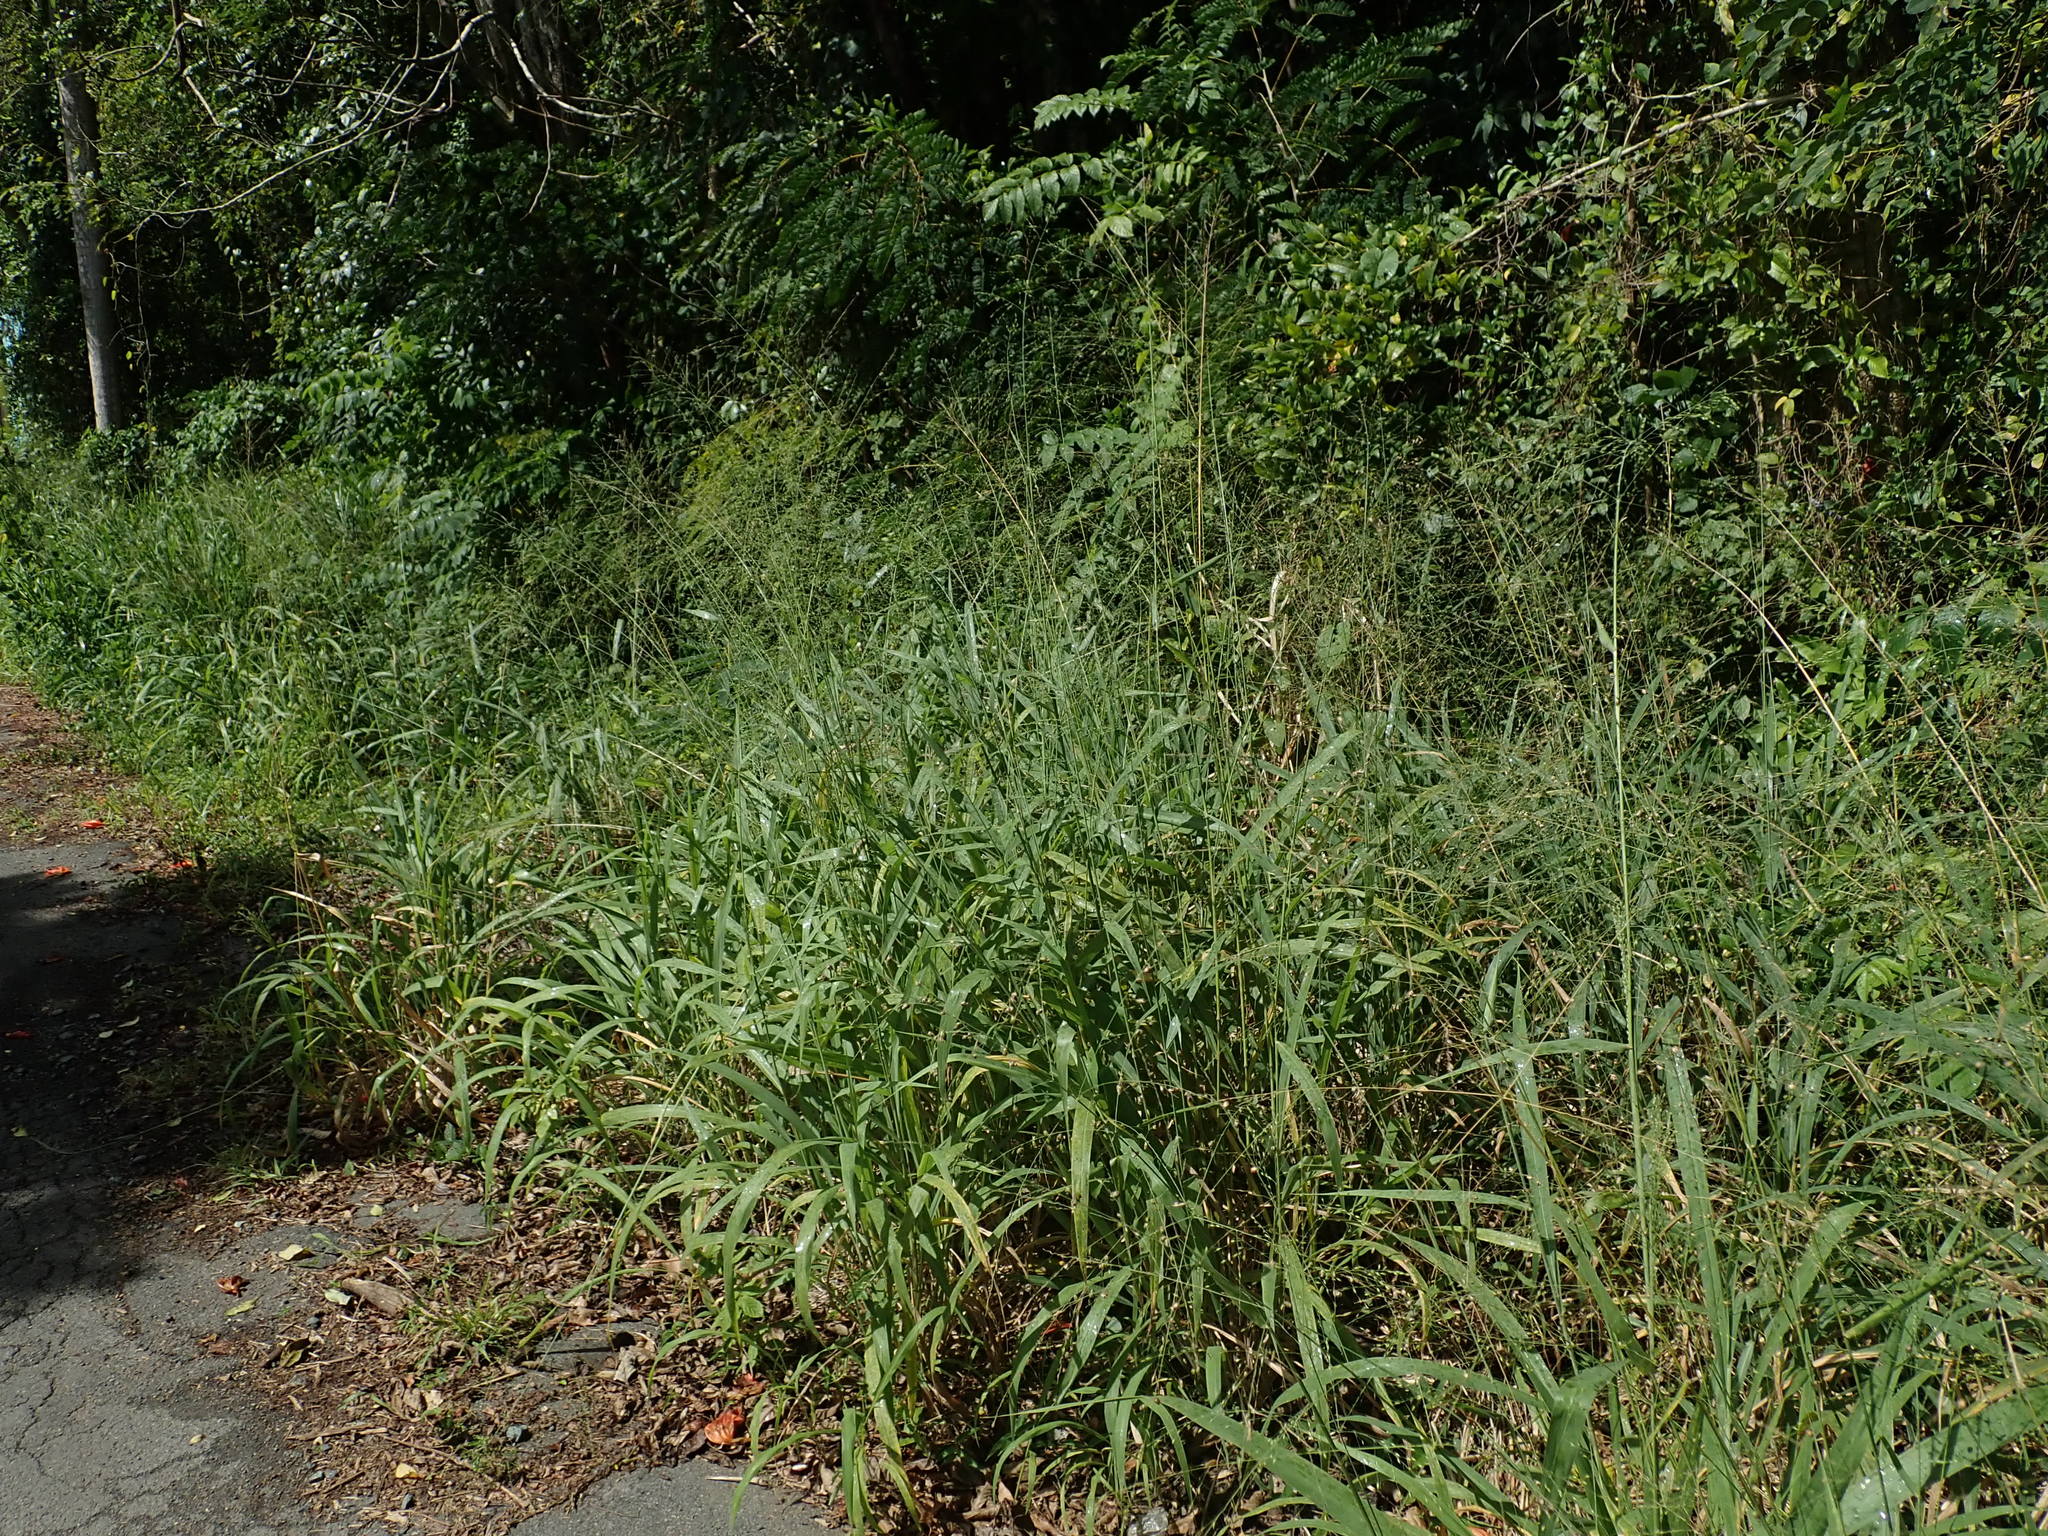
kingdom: Plantae
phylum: Tracheophyta
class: Liliopsida
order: Poales
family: Poaceae
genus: Megathyrsus
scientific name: Megathyrsus maximus
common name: Guineagrass
